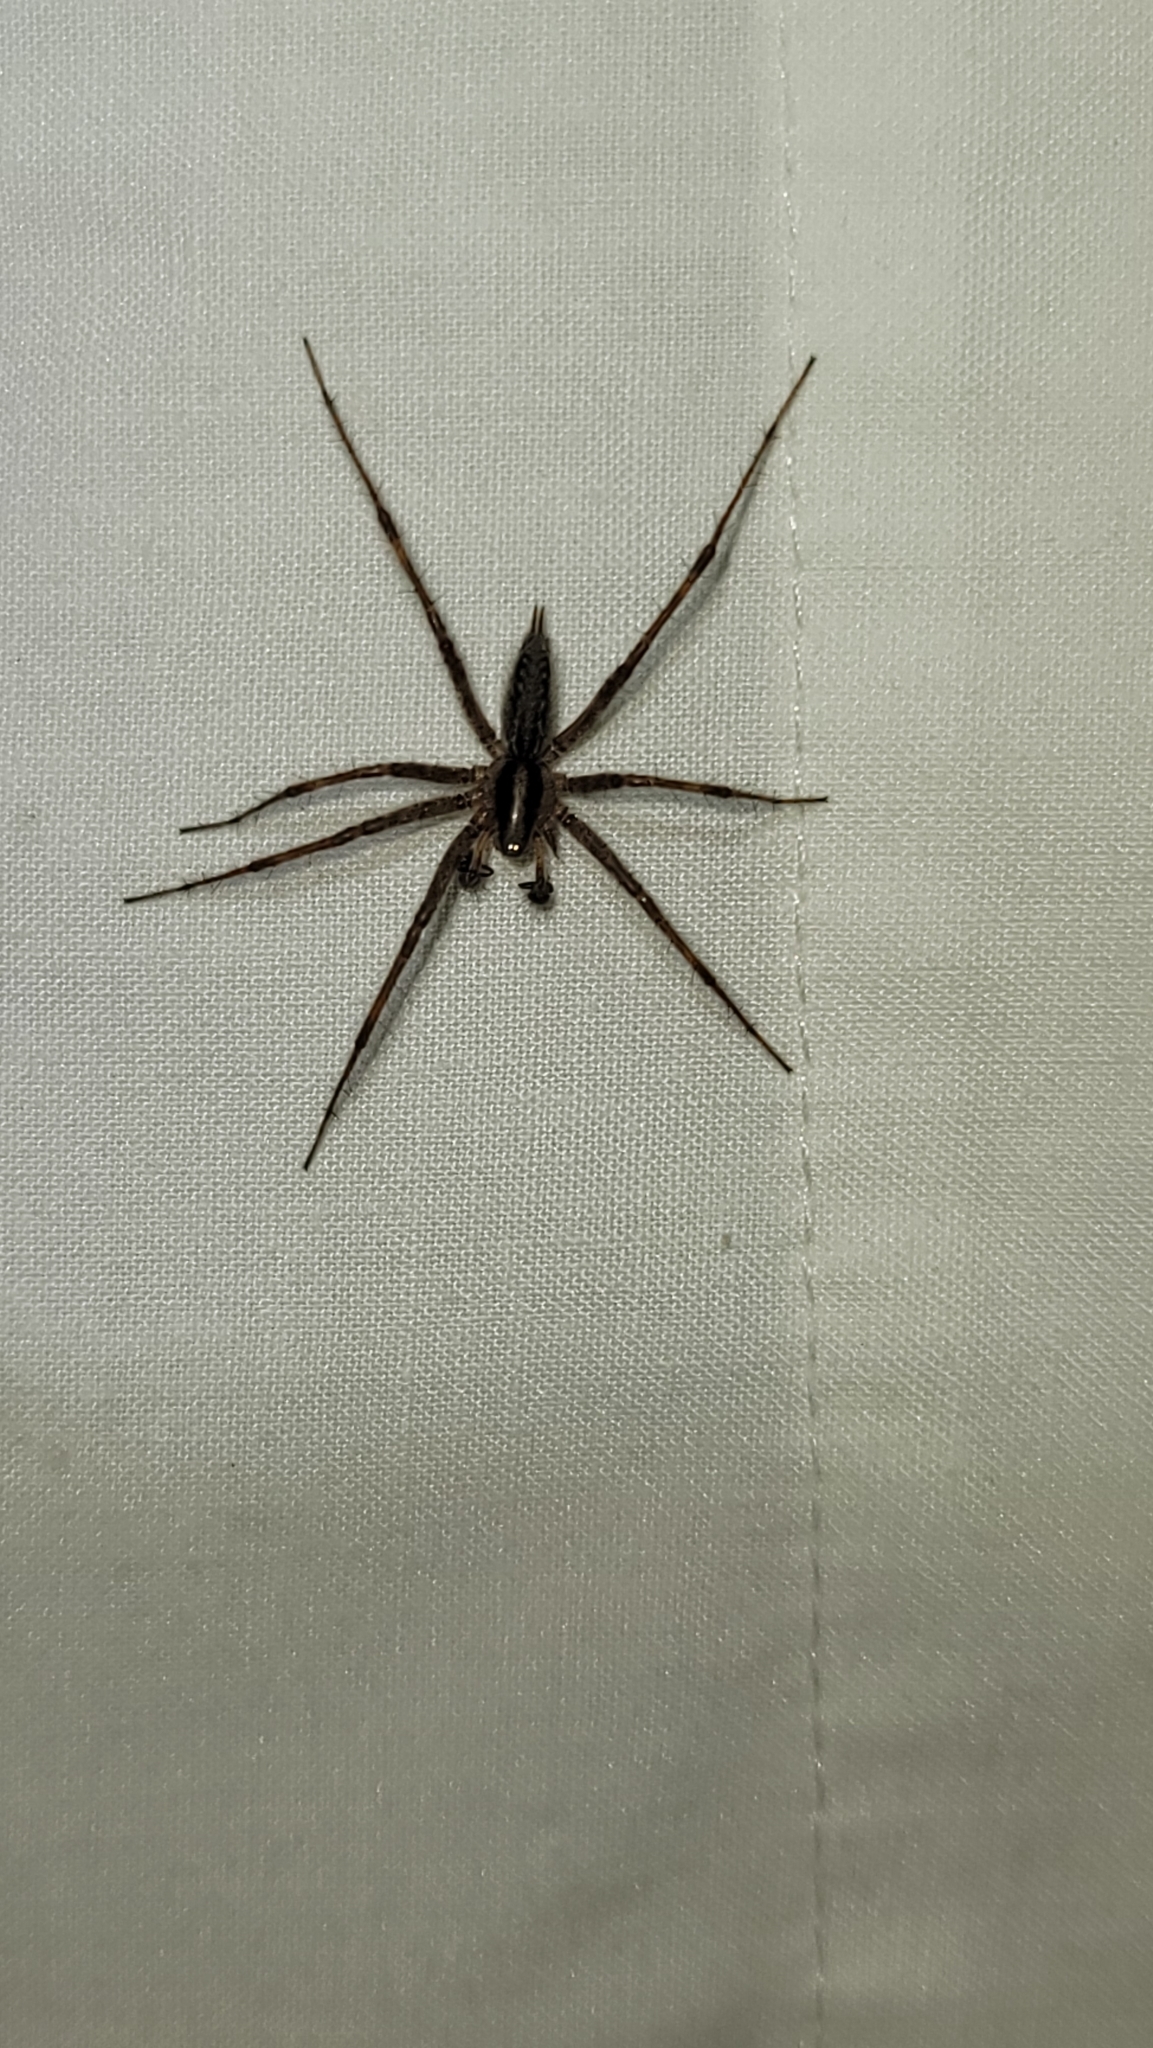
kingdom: Animalia
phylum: Arthropoda
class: Arachnida
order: Araneae
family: Agelenidae
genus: Agelenopsis
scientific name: Agelenopsis
